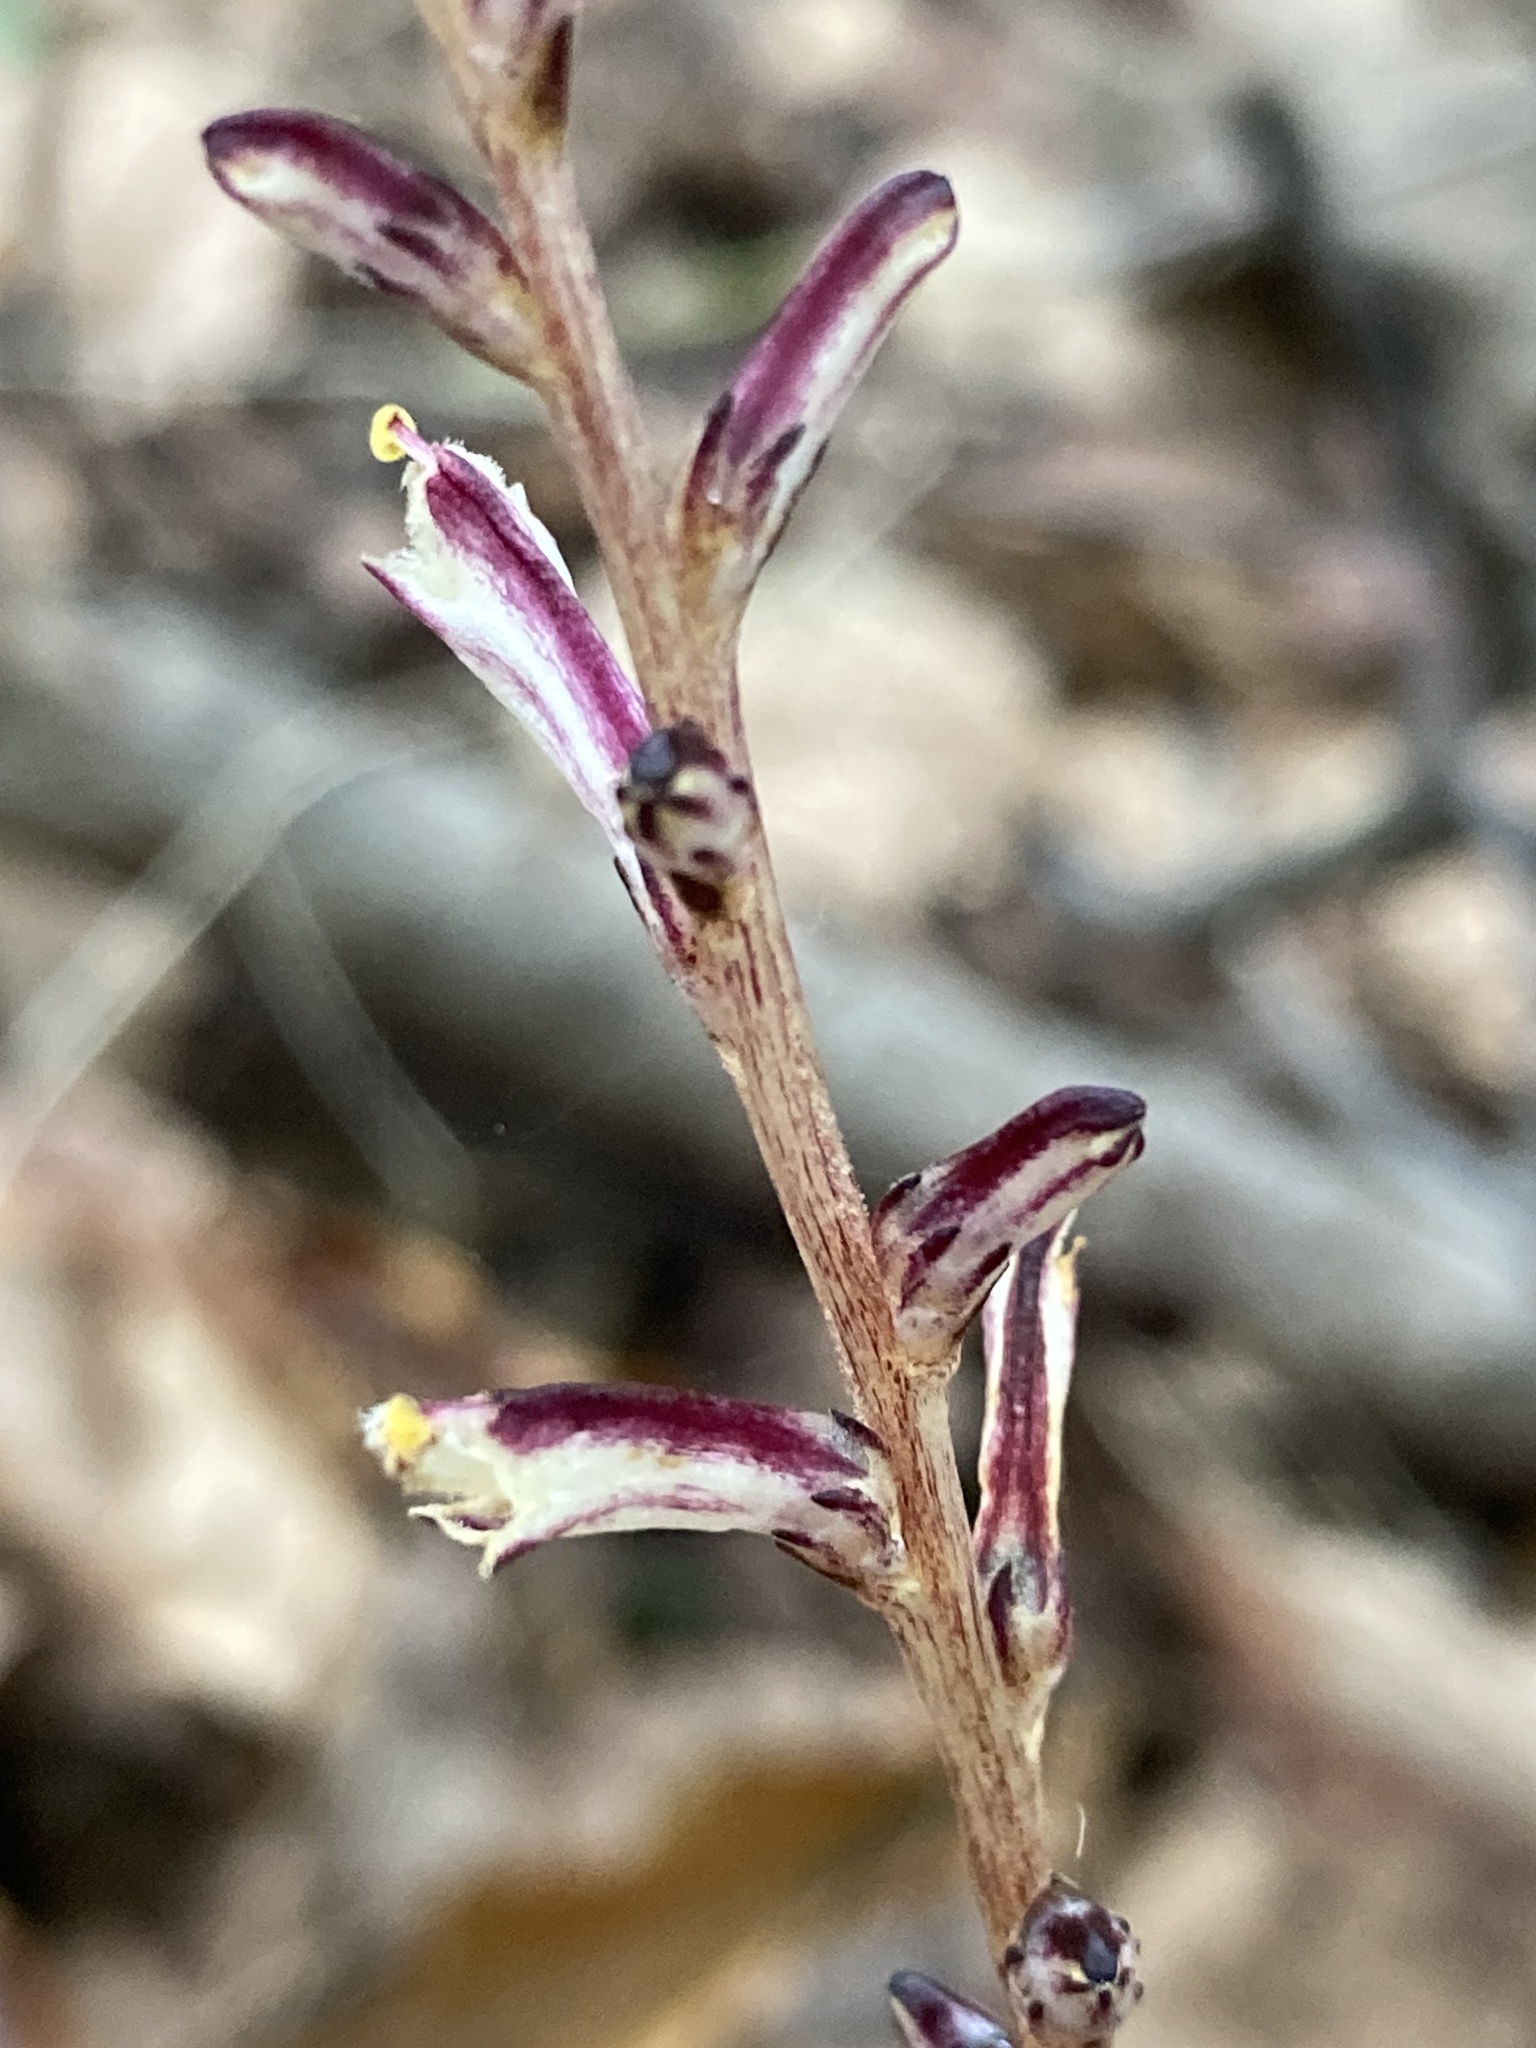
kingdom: Plantae
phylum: Tracheophyta
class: Magnoliopsida
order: Lamiales
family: Orobanchaceae
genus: Epifagus
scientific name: Epifagus virginiana
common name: Beechdrops
